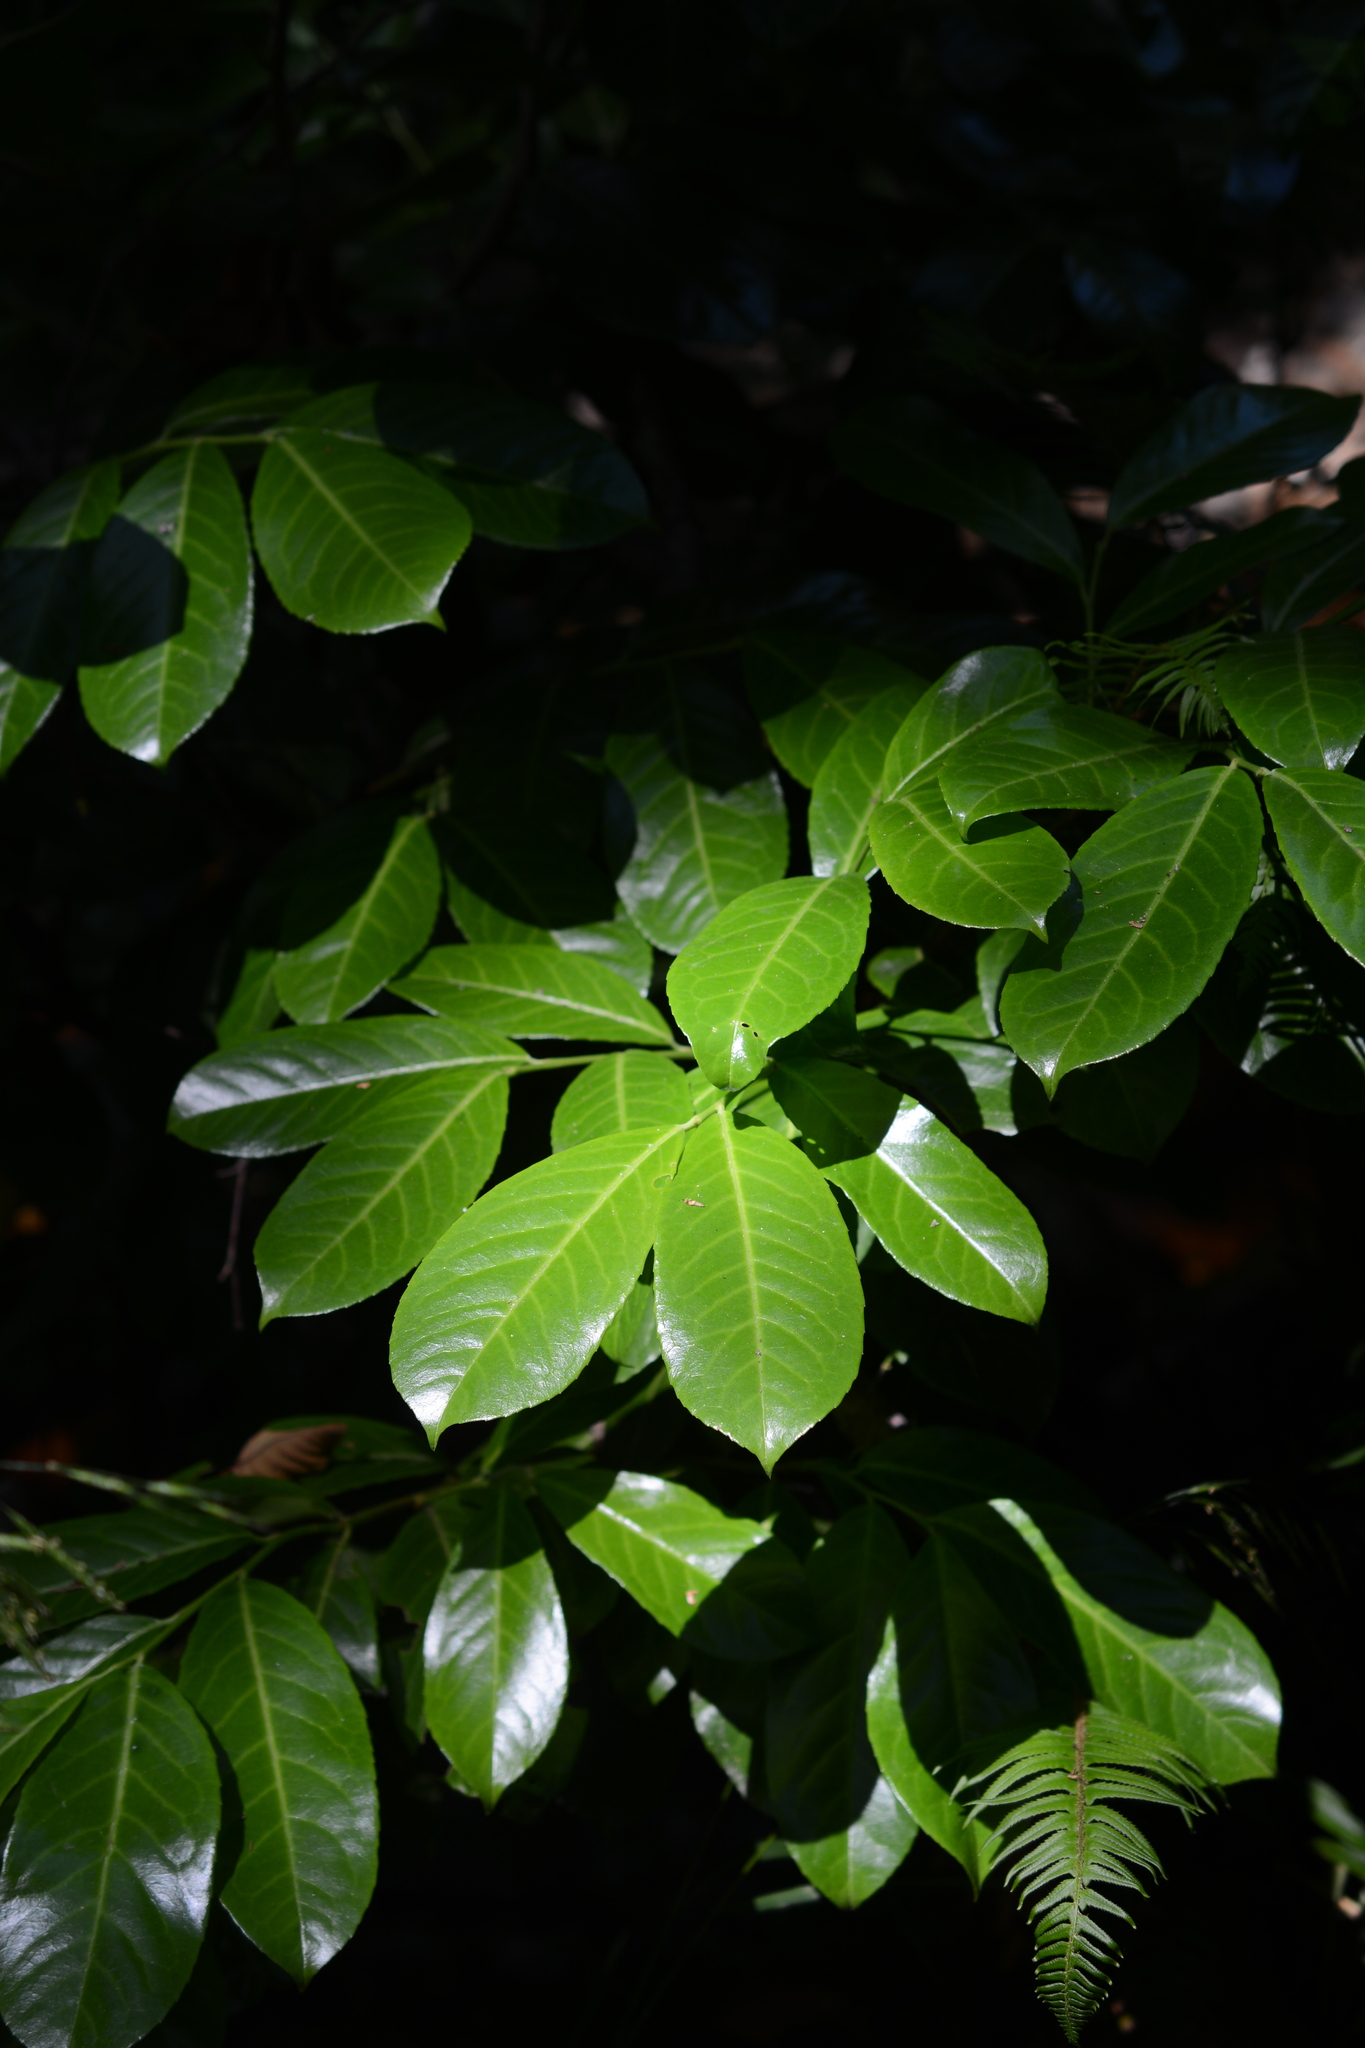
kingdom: Plantae
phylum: Tracheophyta
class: Magnoliopsida
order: Rosales
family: Rosaceae
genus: Prunus
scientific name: Prunus laurocerasus
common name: Cherry laurel
